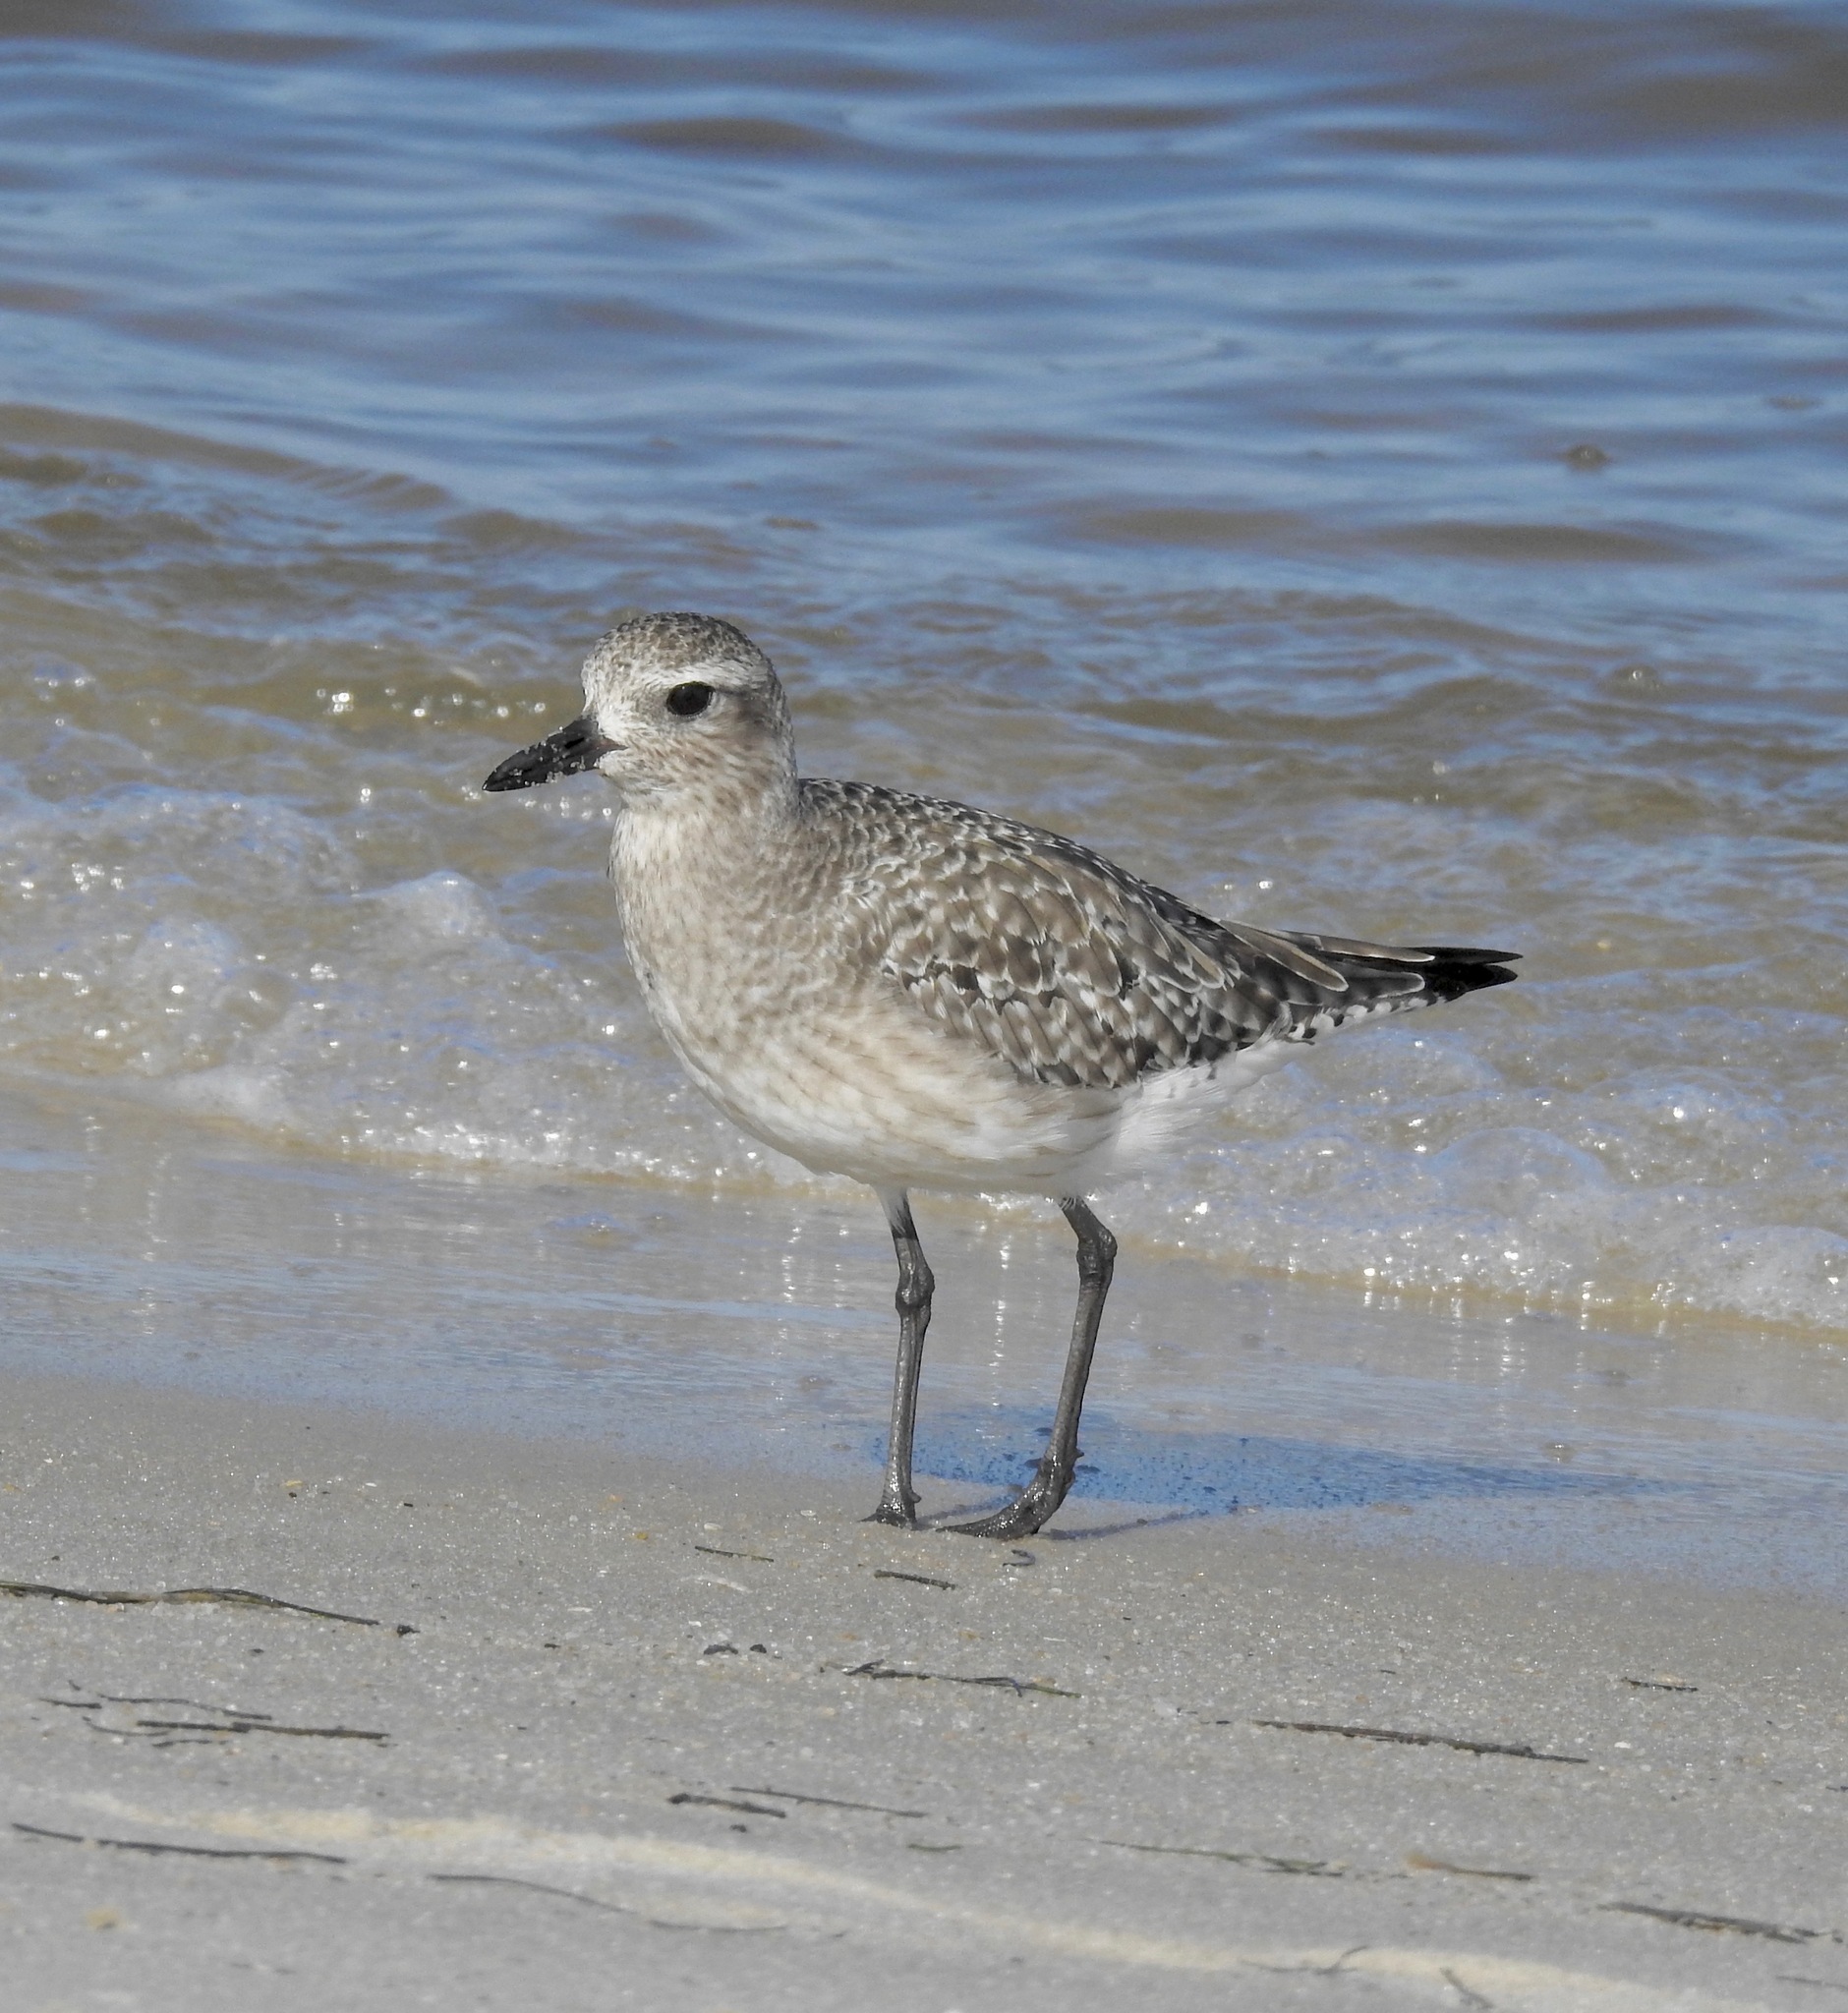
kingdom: Animalia
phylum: Chordata
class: Aves
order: Charadriiformes
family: Charadriidae
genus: Pluvialis
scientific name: Pluvialis squatarola
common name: Grey plover
